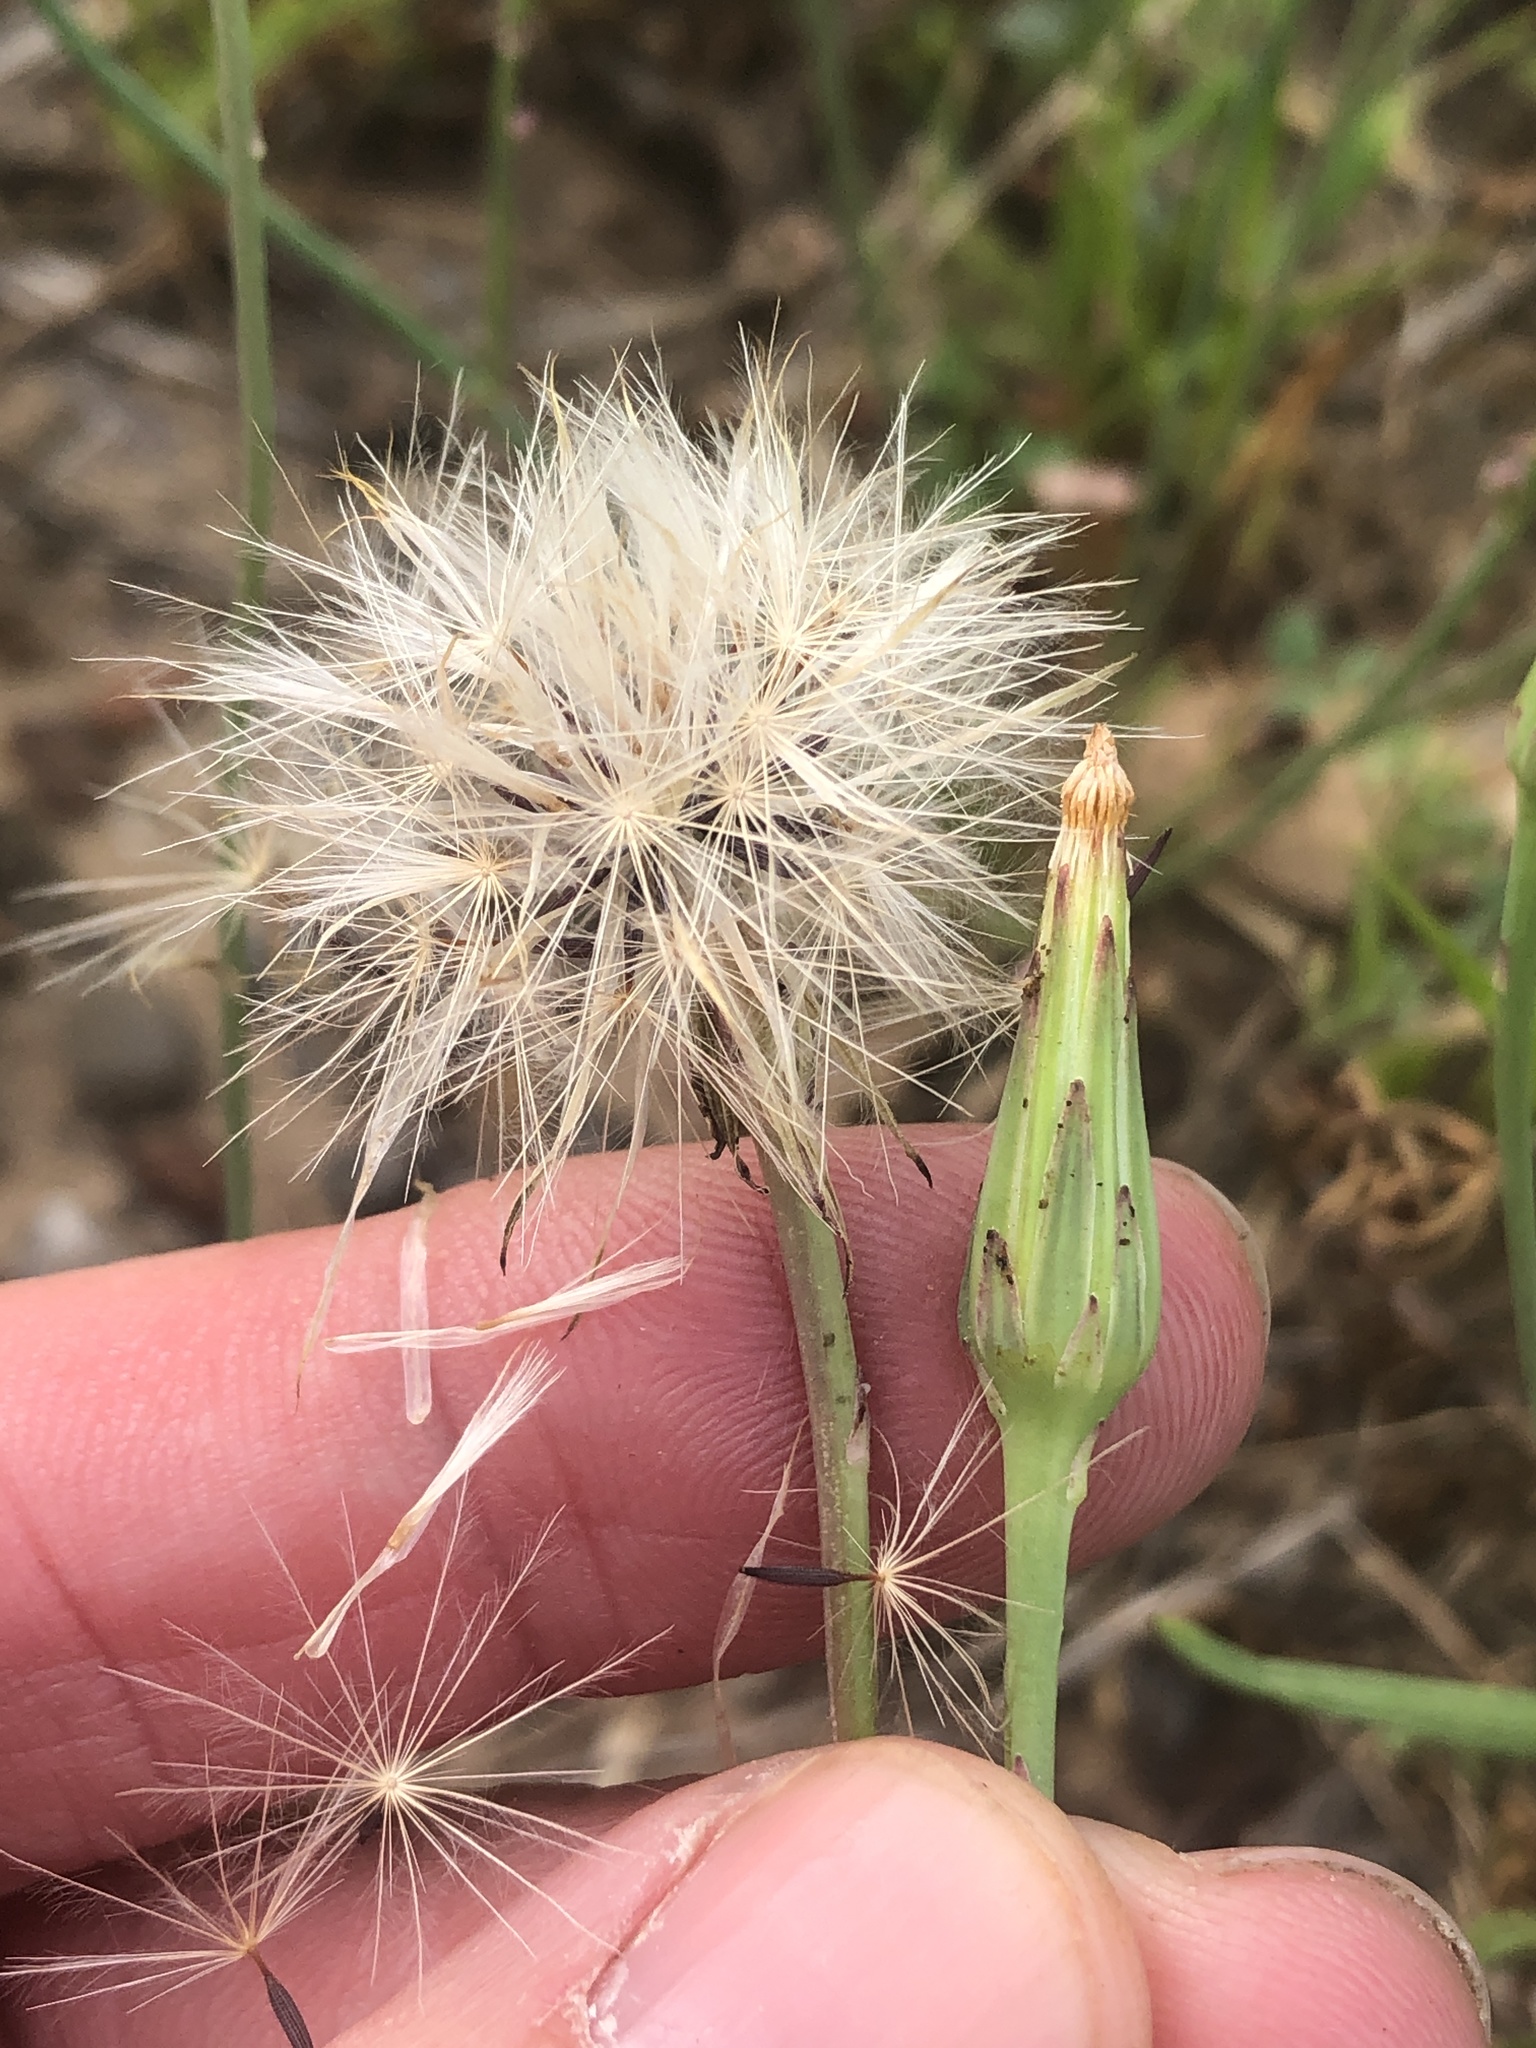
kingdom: Plantae
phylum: Tracheophyta
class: Magnoliopsida
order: Asterales
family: Asteraceae
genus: Hypochaeris
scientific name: Hypochaeris glabra
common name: Smooth catsear
